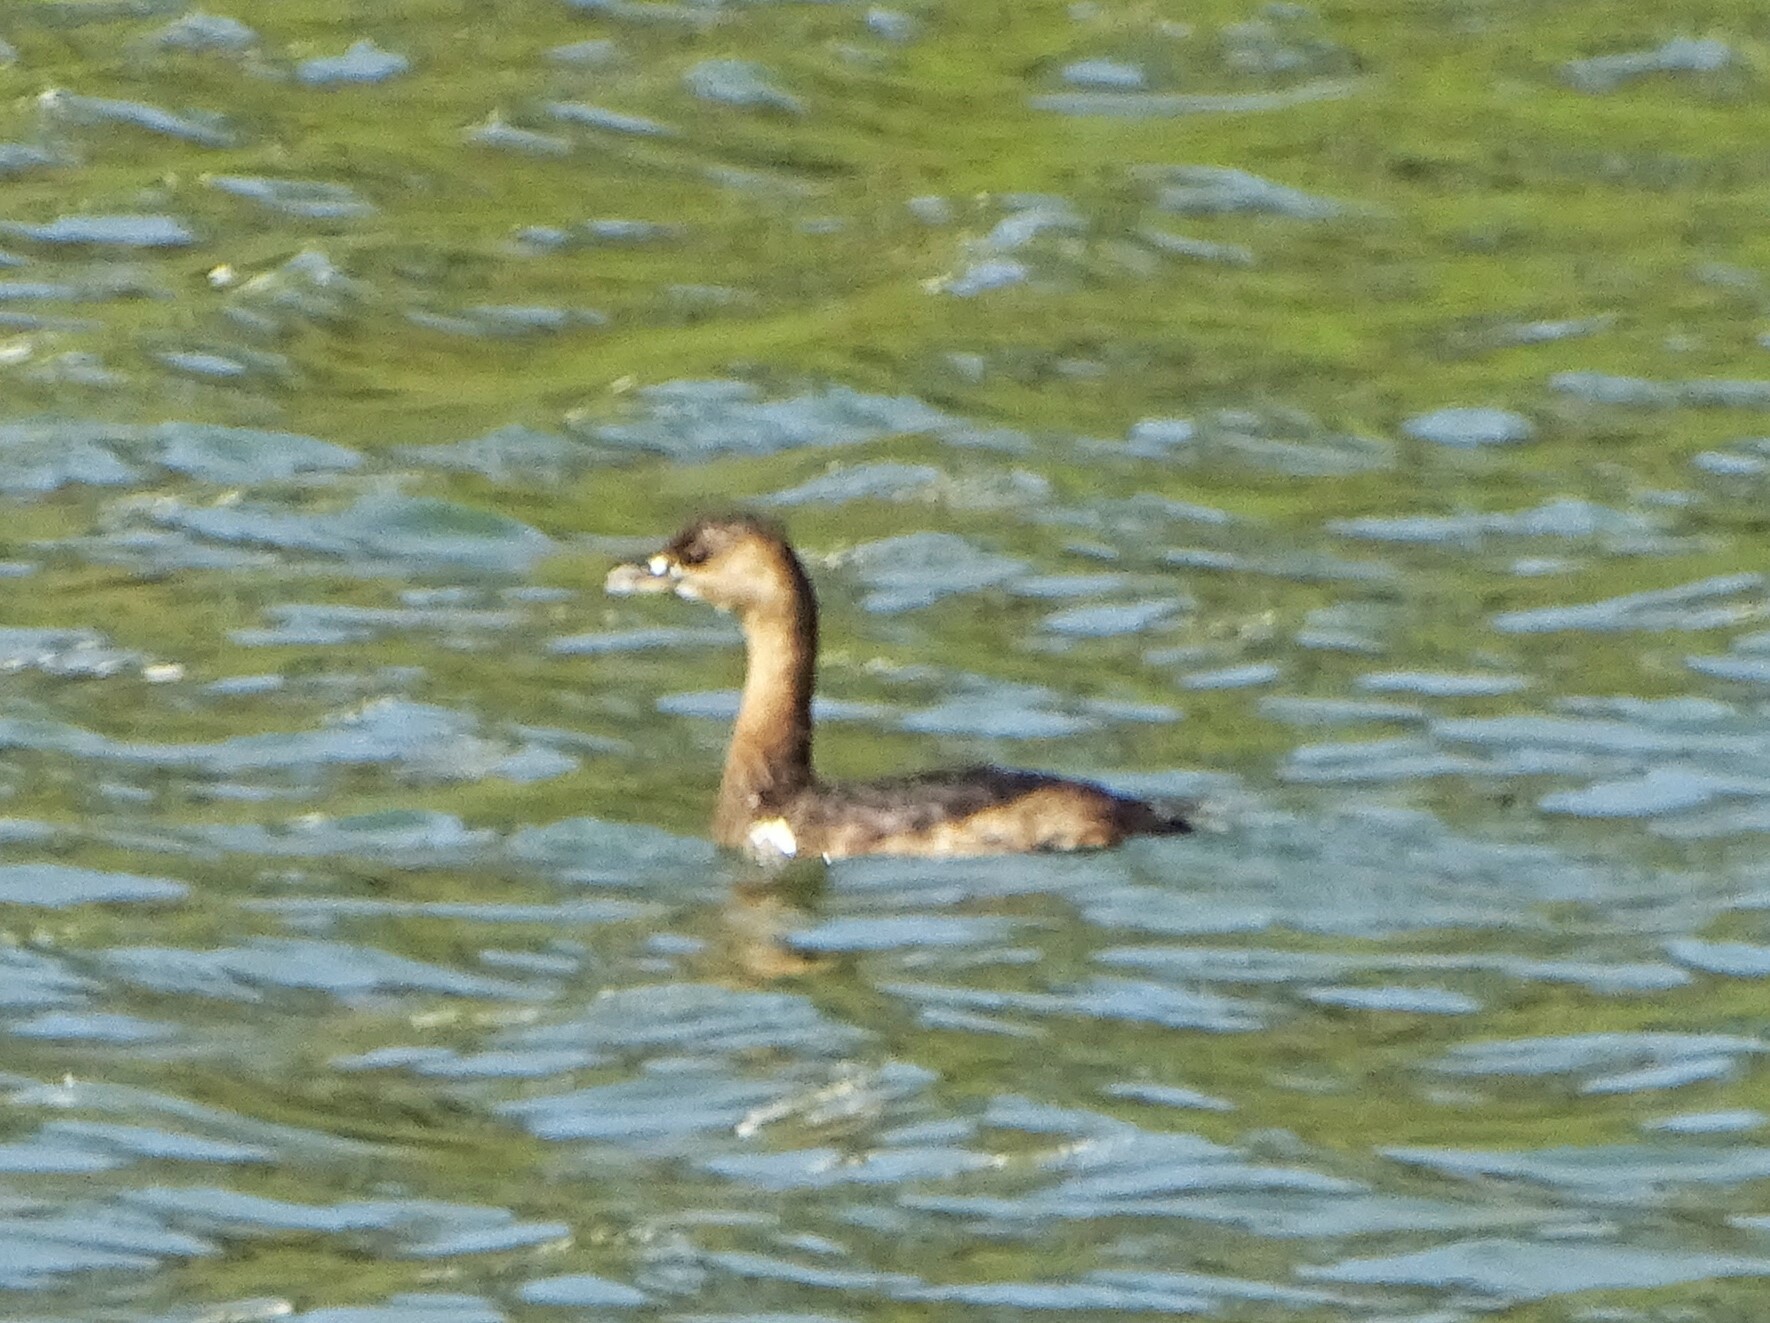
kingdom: Animalia
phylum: Chordata
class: Aves
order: Podicipediformes
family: Podicipedidae
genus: Podilymbus
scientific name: Podilymbus podiceps
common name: Pied-billed grebe
